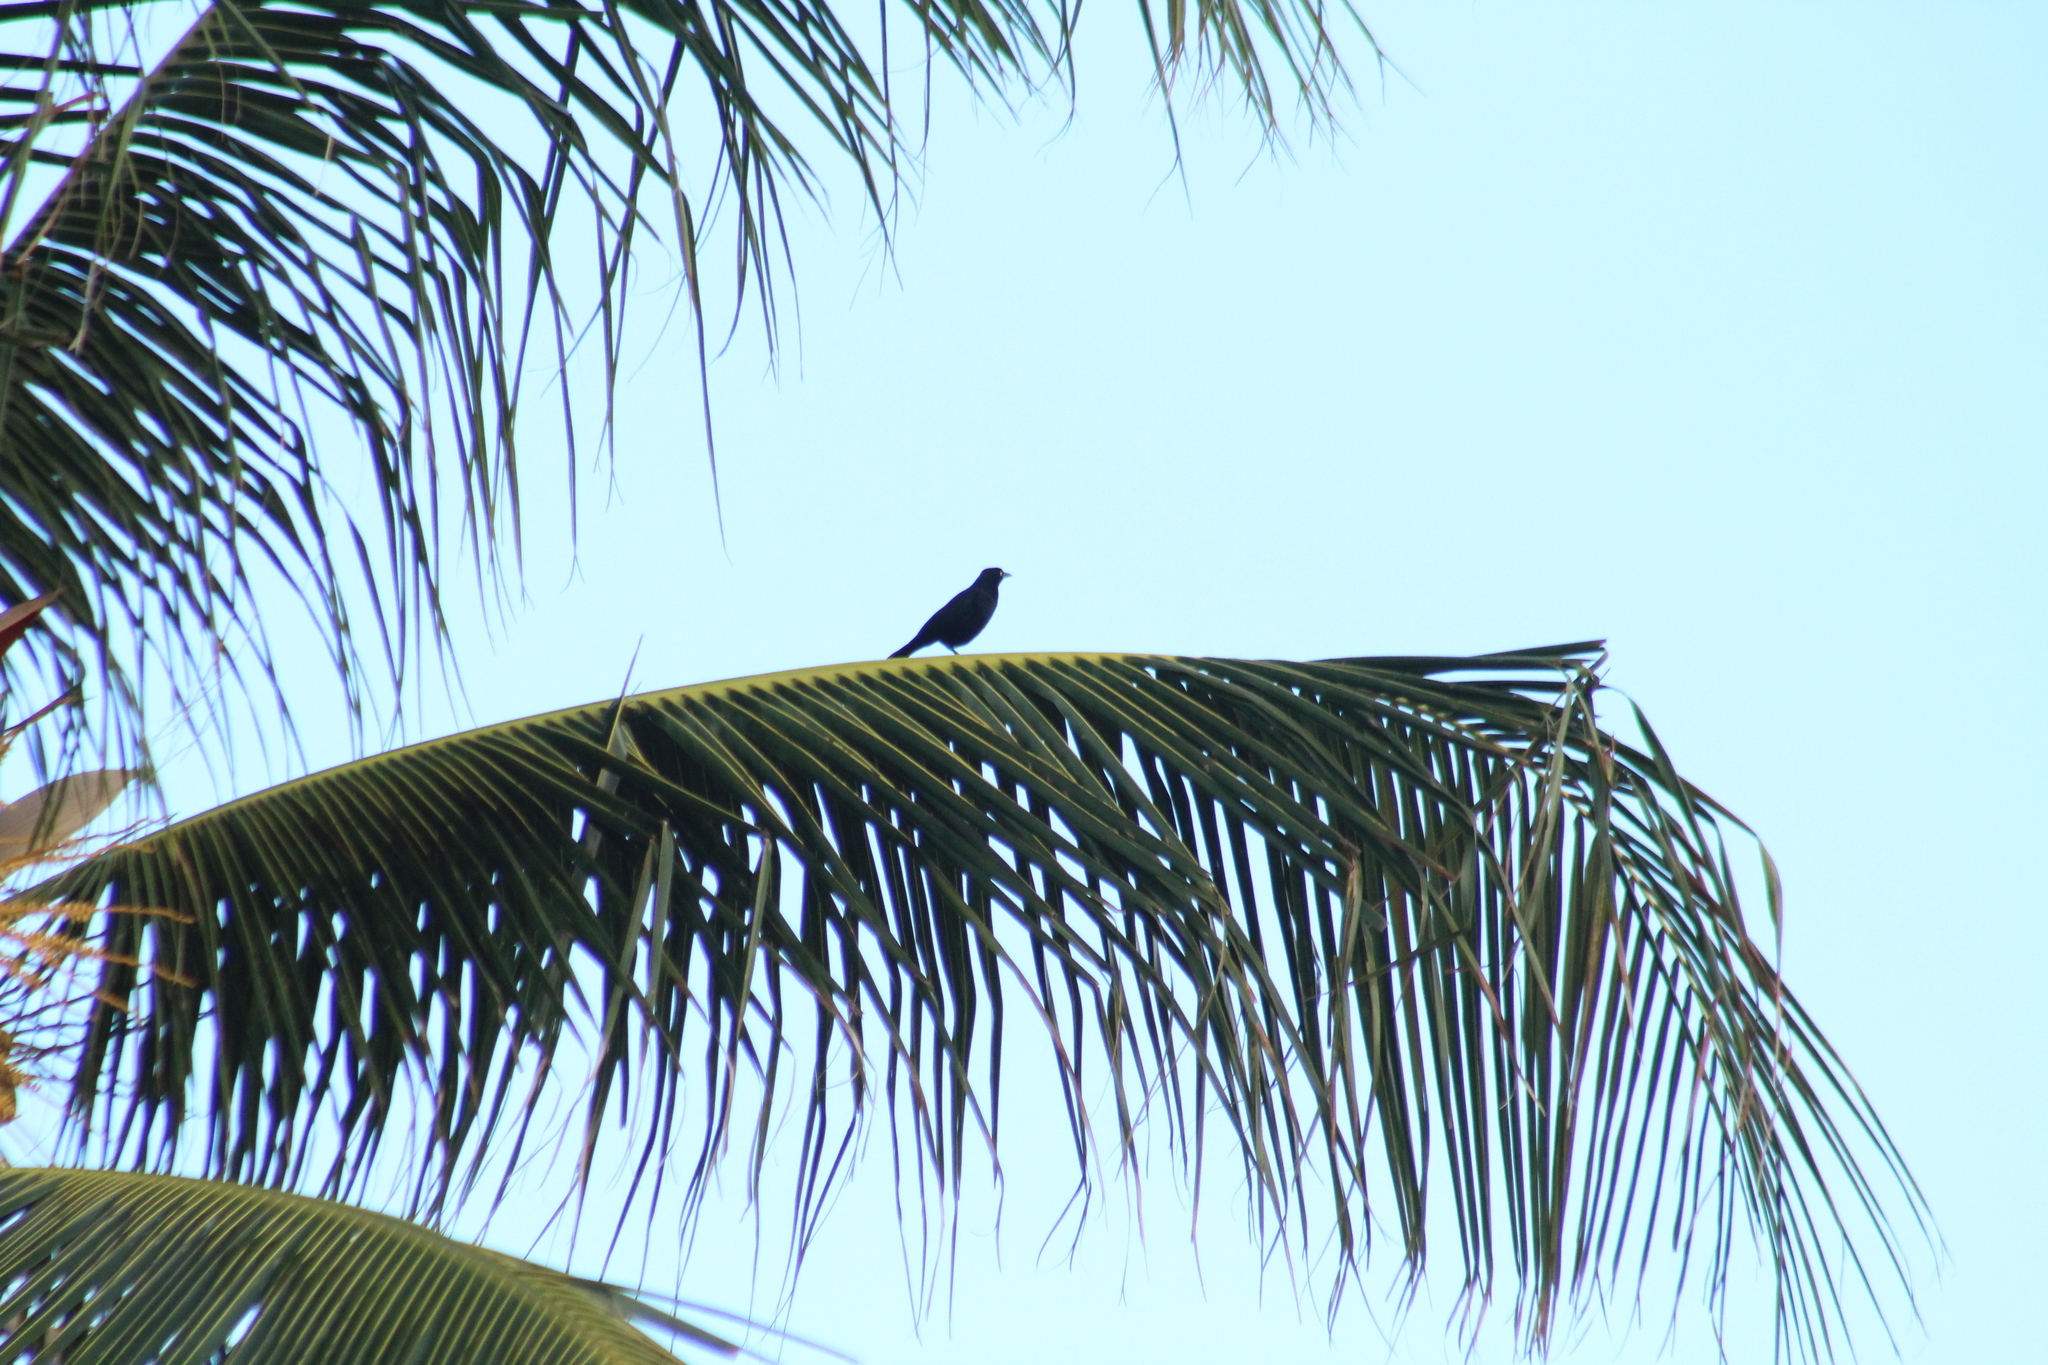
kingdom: Animalia
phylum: Chordata
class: Aves
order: Passeriformes
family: Icteridae
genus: Quiscalus
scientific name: Quiscalus lugubris
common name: Carib grackle
